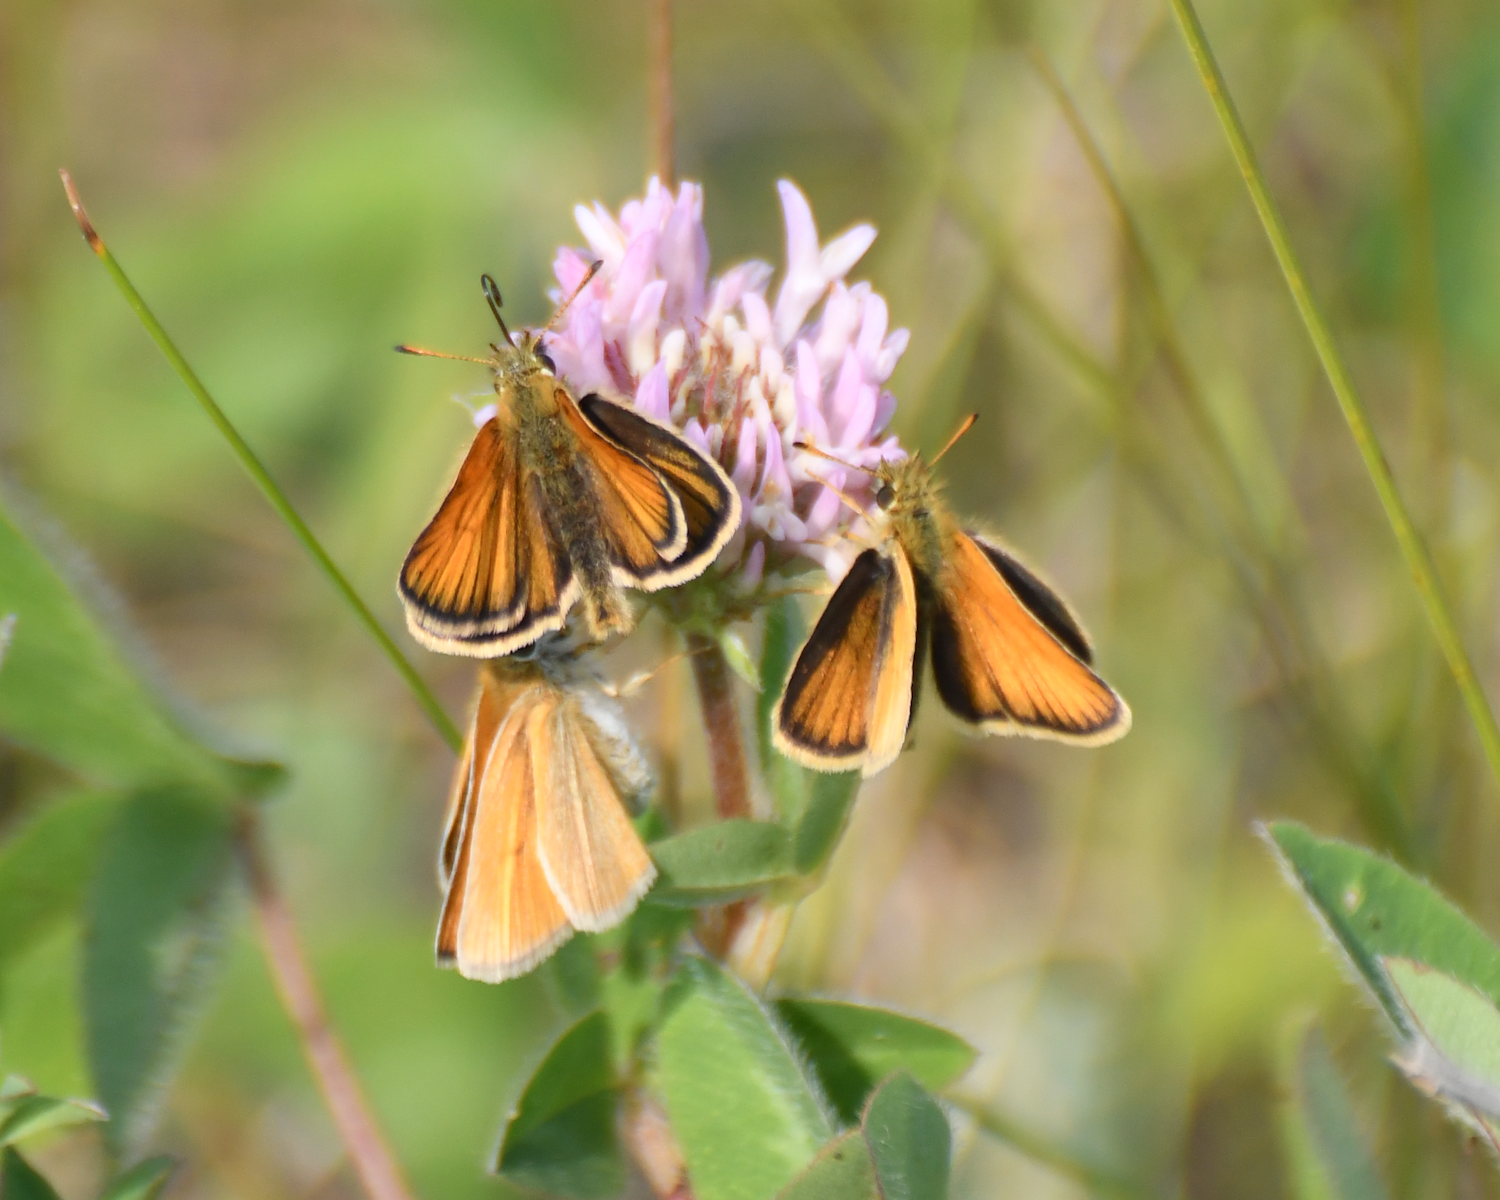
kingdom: Animalia
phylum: Arthropoda
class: Insecta
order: Lepidoptera
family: Hesperiidae
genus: Thymelicus
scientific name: Thymelicus lineola
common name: Essex skipper
